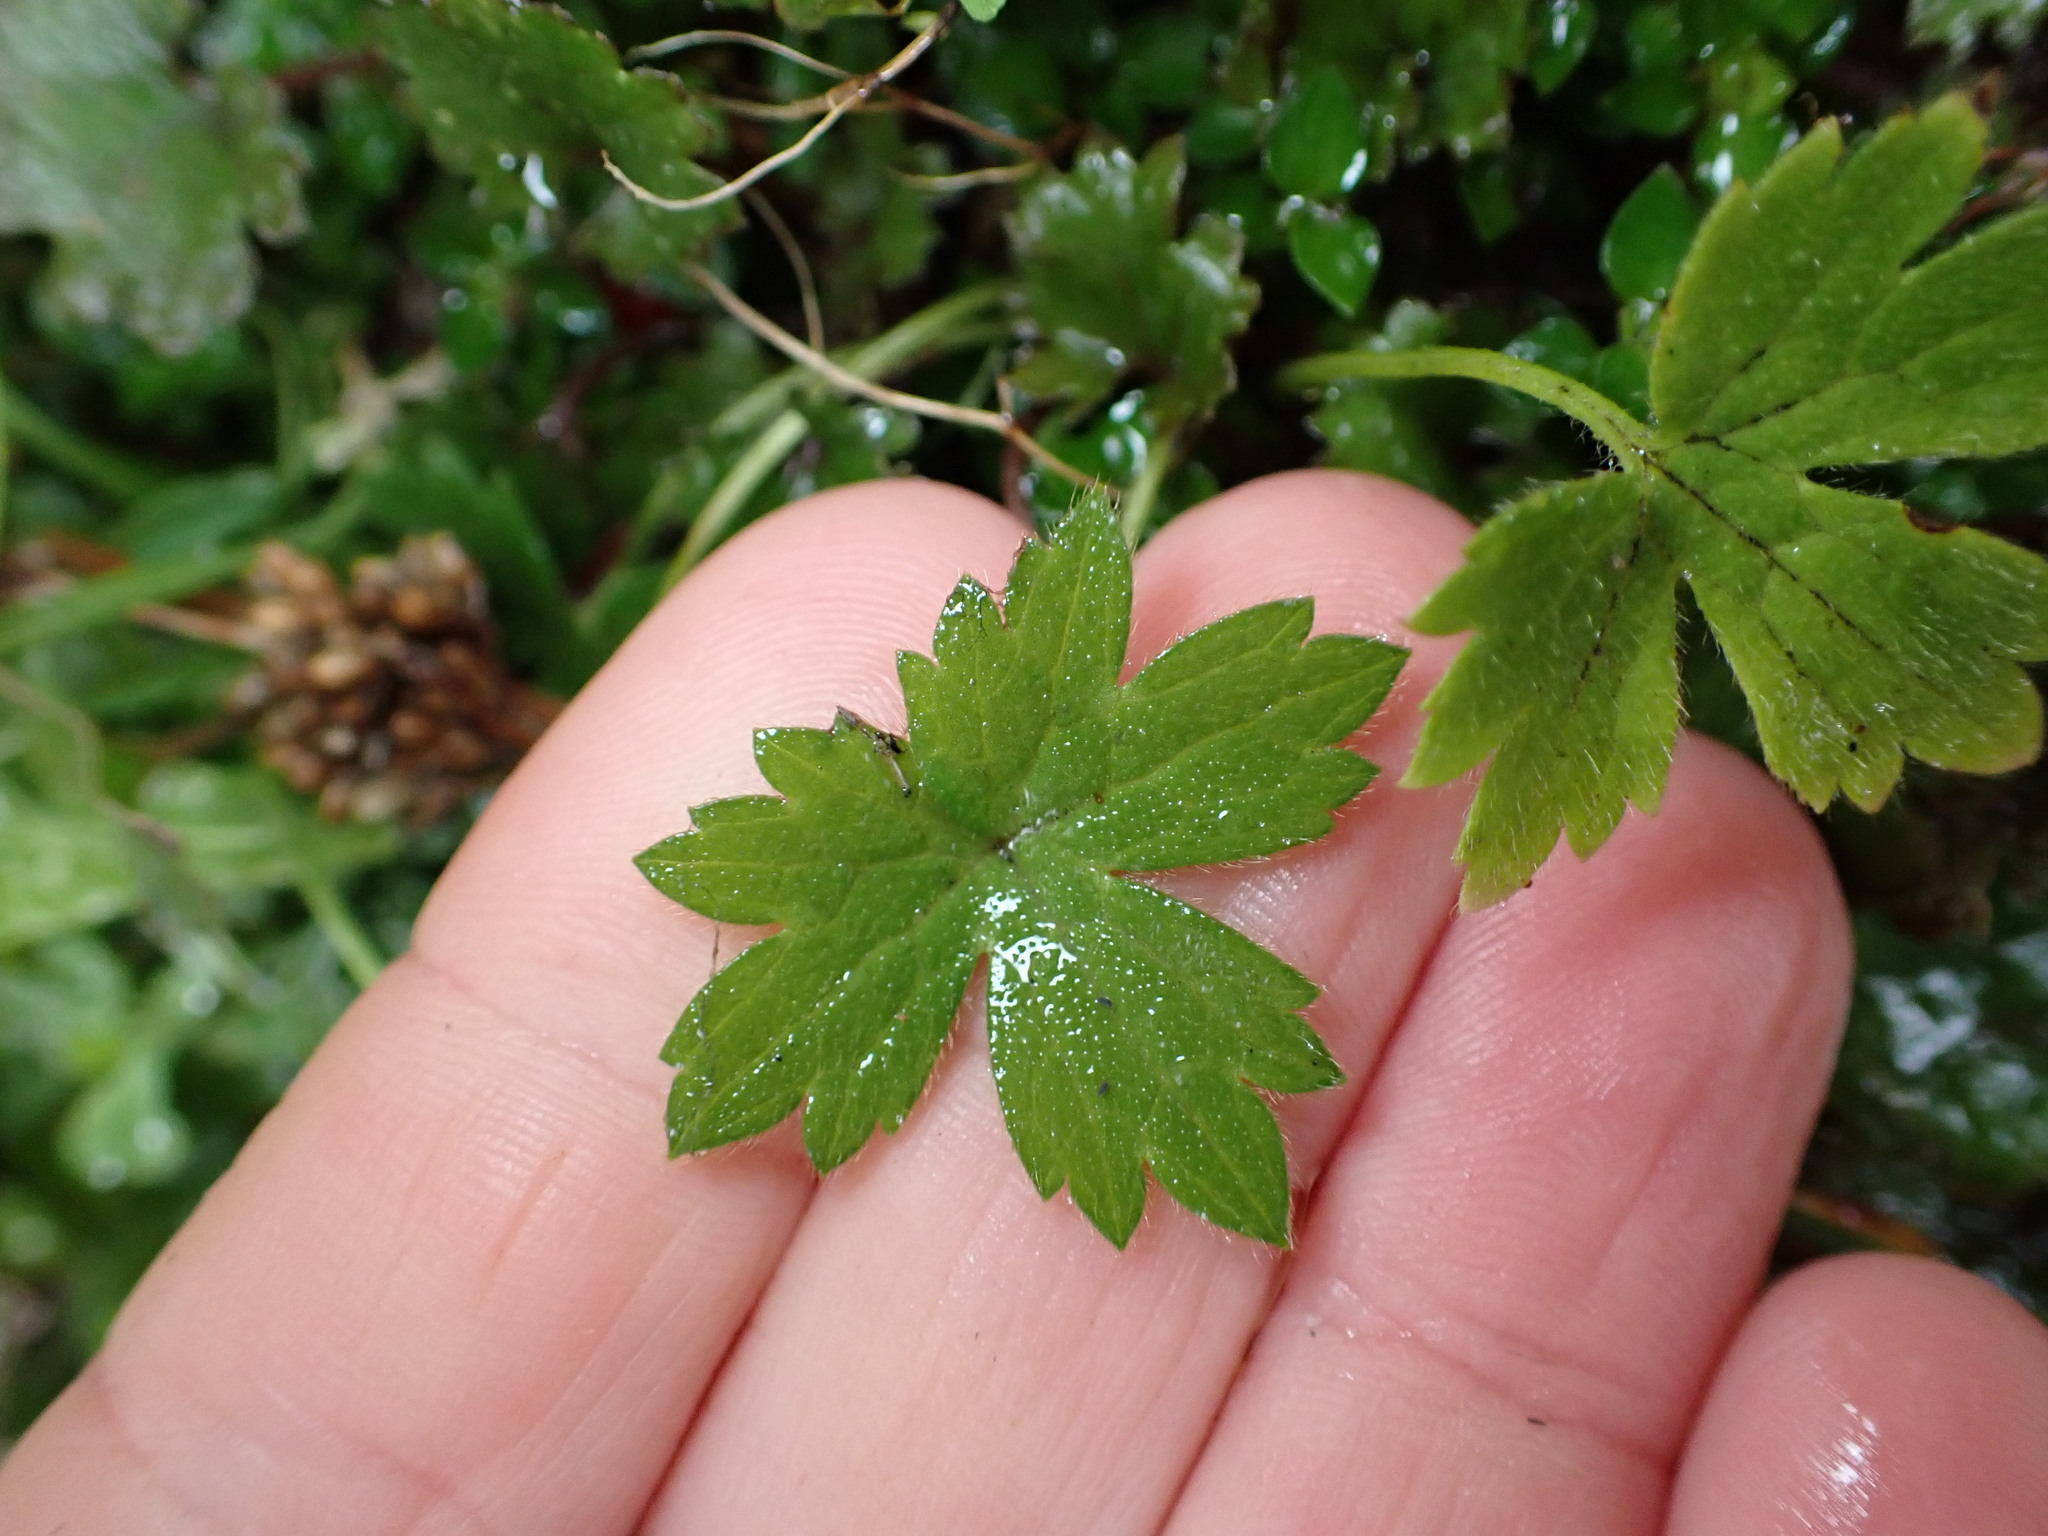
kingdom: Plantae
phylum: Tracheophyta
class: Magnoliopsida
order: Ranunculales
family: Ranunculaceae
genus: Ranunculus
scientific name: Ranunculus repens
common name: Creeping buttercup
